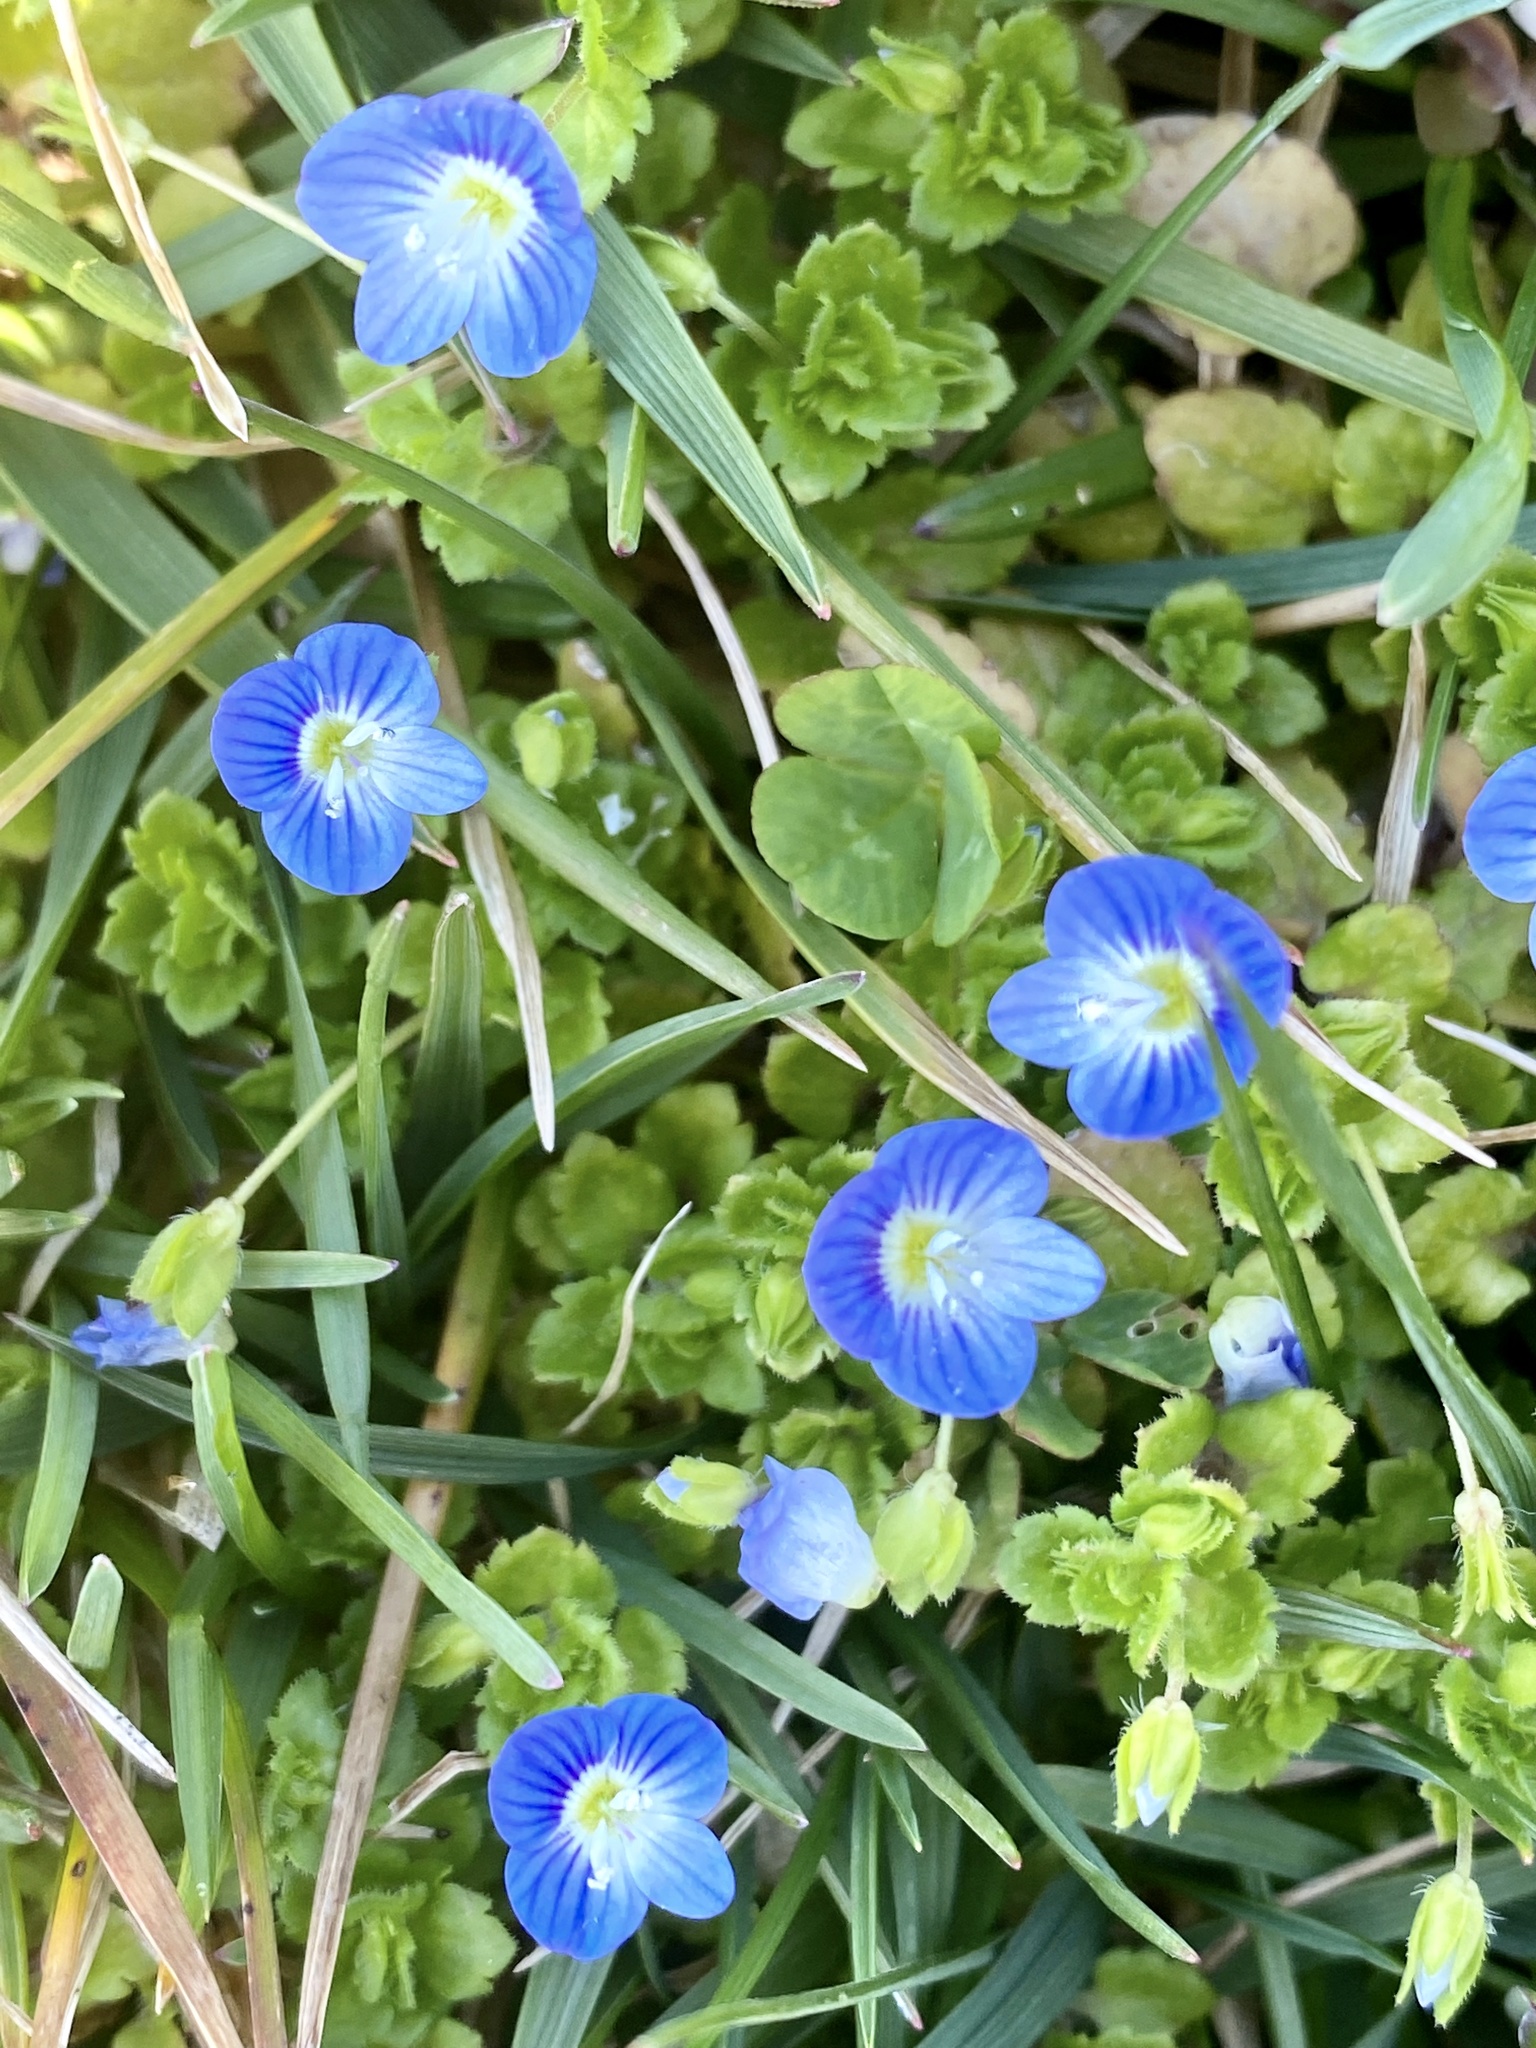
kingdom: Plantae
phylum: Tracheophyta
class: Magnoliopsida
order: Lamiales
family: Plantaginaceae
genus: Veronica
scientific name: Veronica persica
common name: Common field-speedwell
